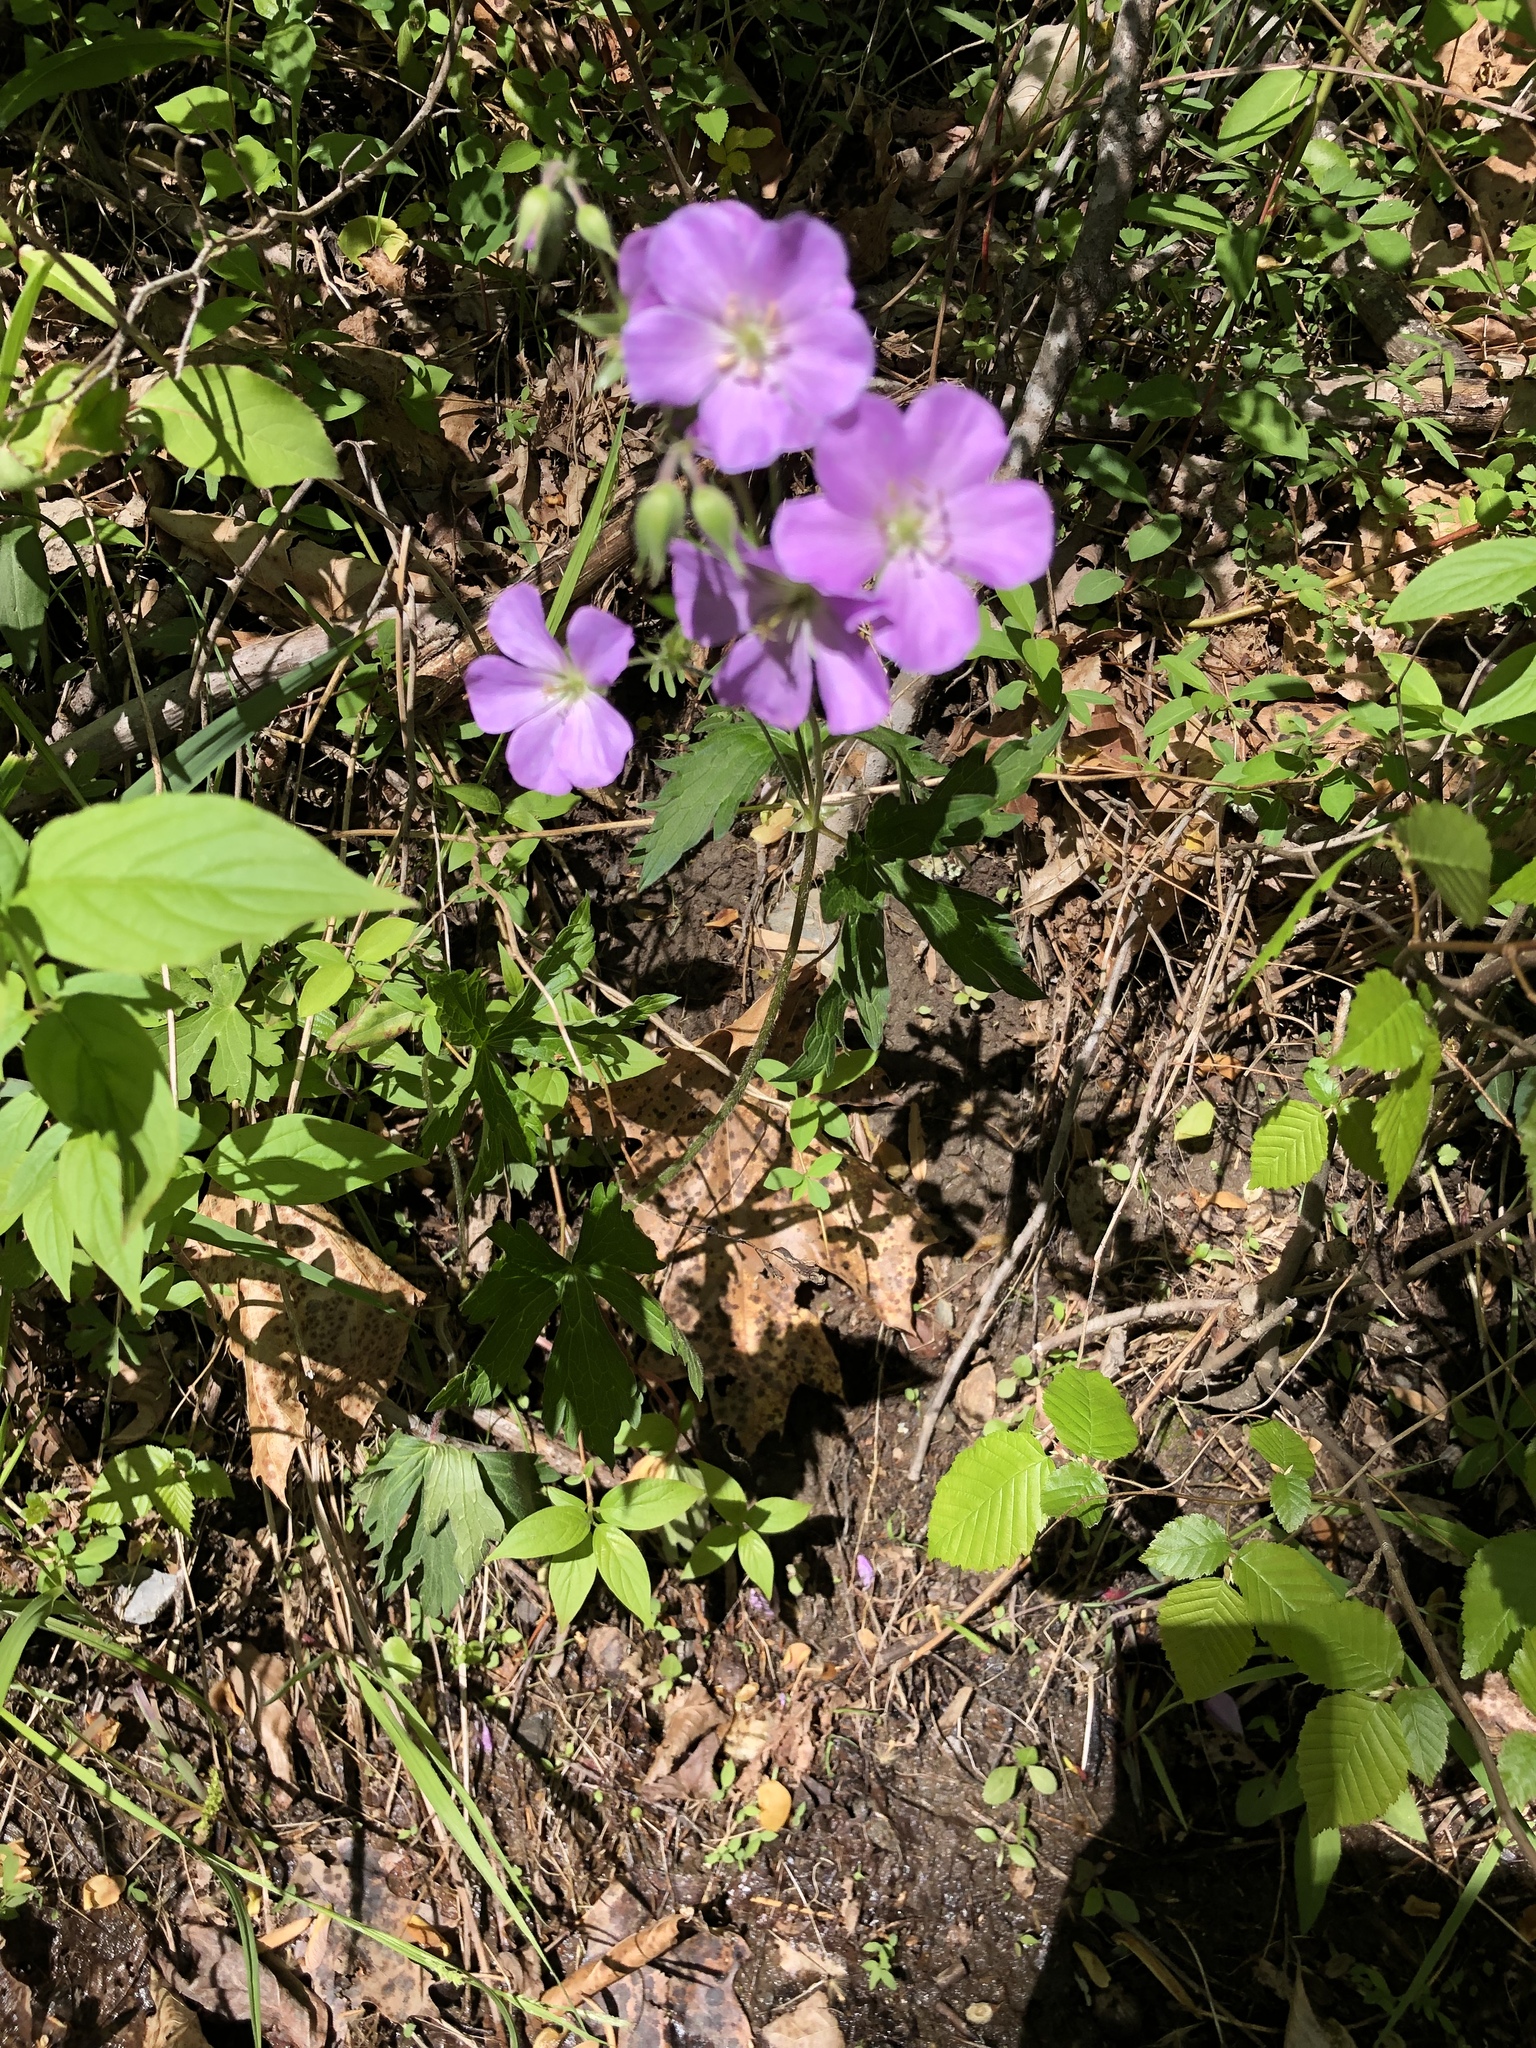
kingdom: Plantae
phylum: Tracheophyta
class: Magnoliopsida
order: Geraniales
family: Geraniaceae
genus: Geranium
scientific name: Geranium maculatum
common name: Spotted geranium
